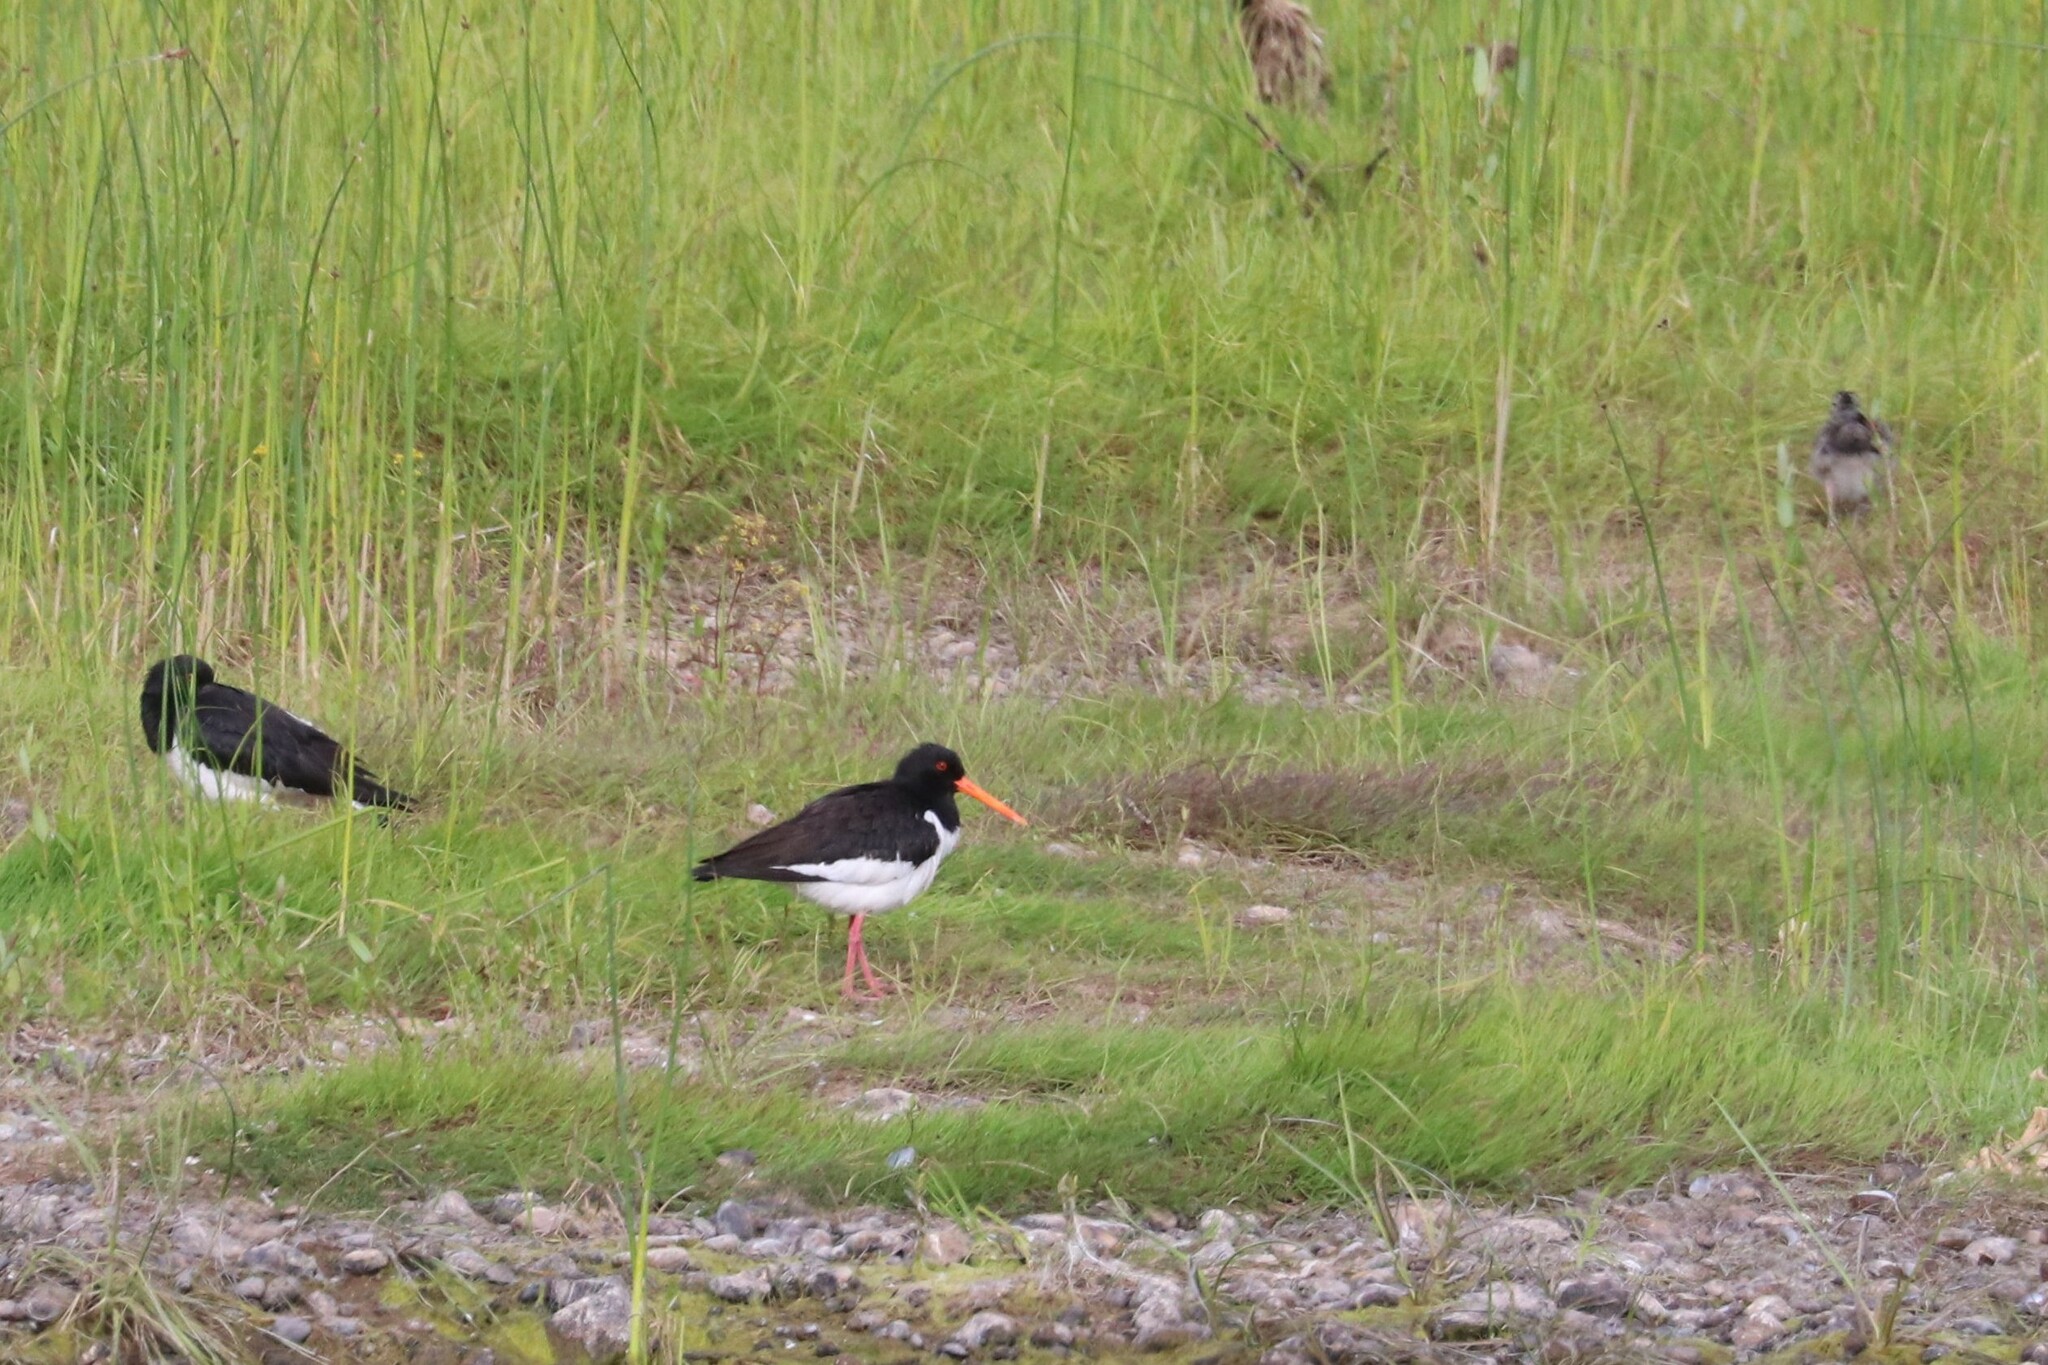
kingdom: Animalia
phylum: Chordata
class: Aves
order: Charadriiformes
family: Haematopodidae
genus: Haematopus
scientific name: Haematopus ostralegus
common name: Eurasian oystercatcher
